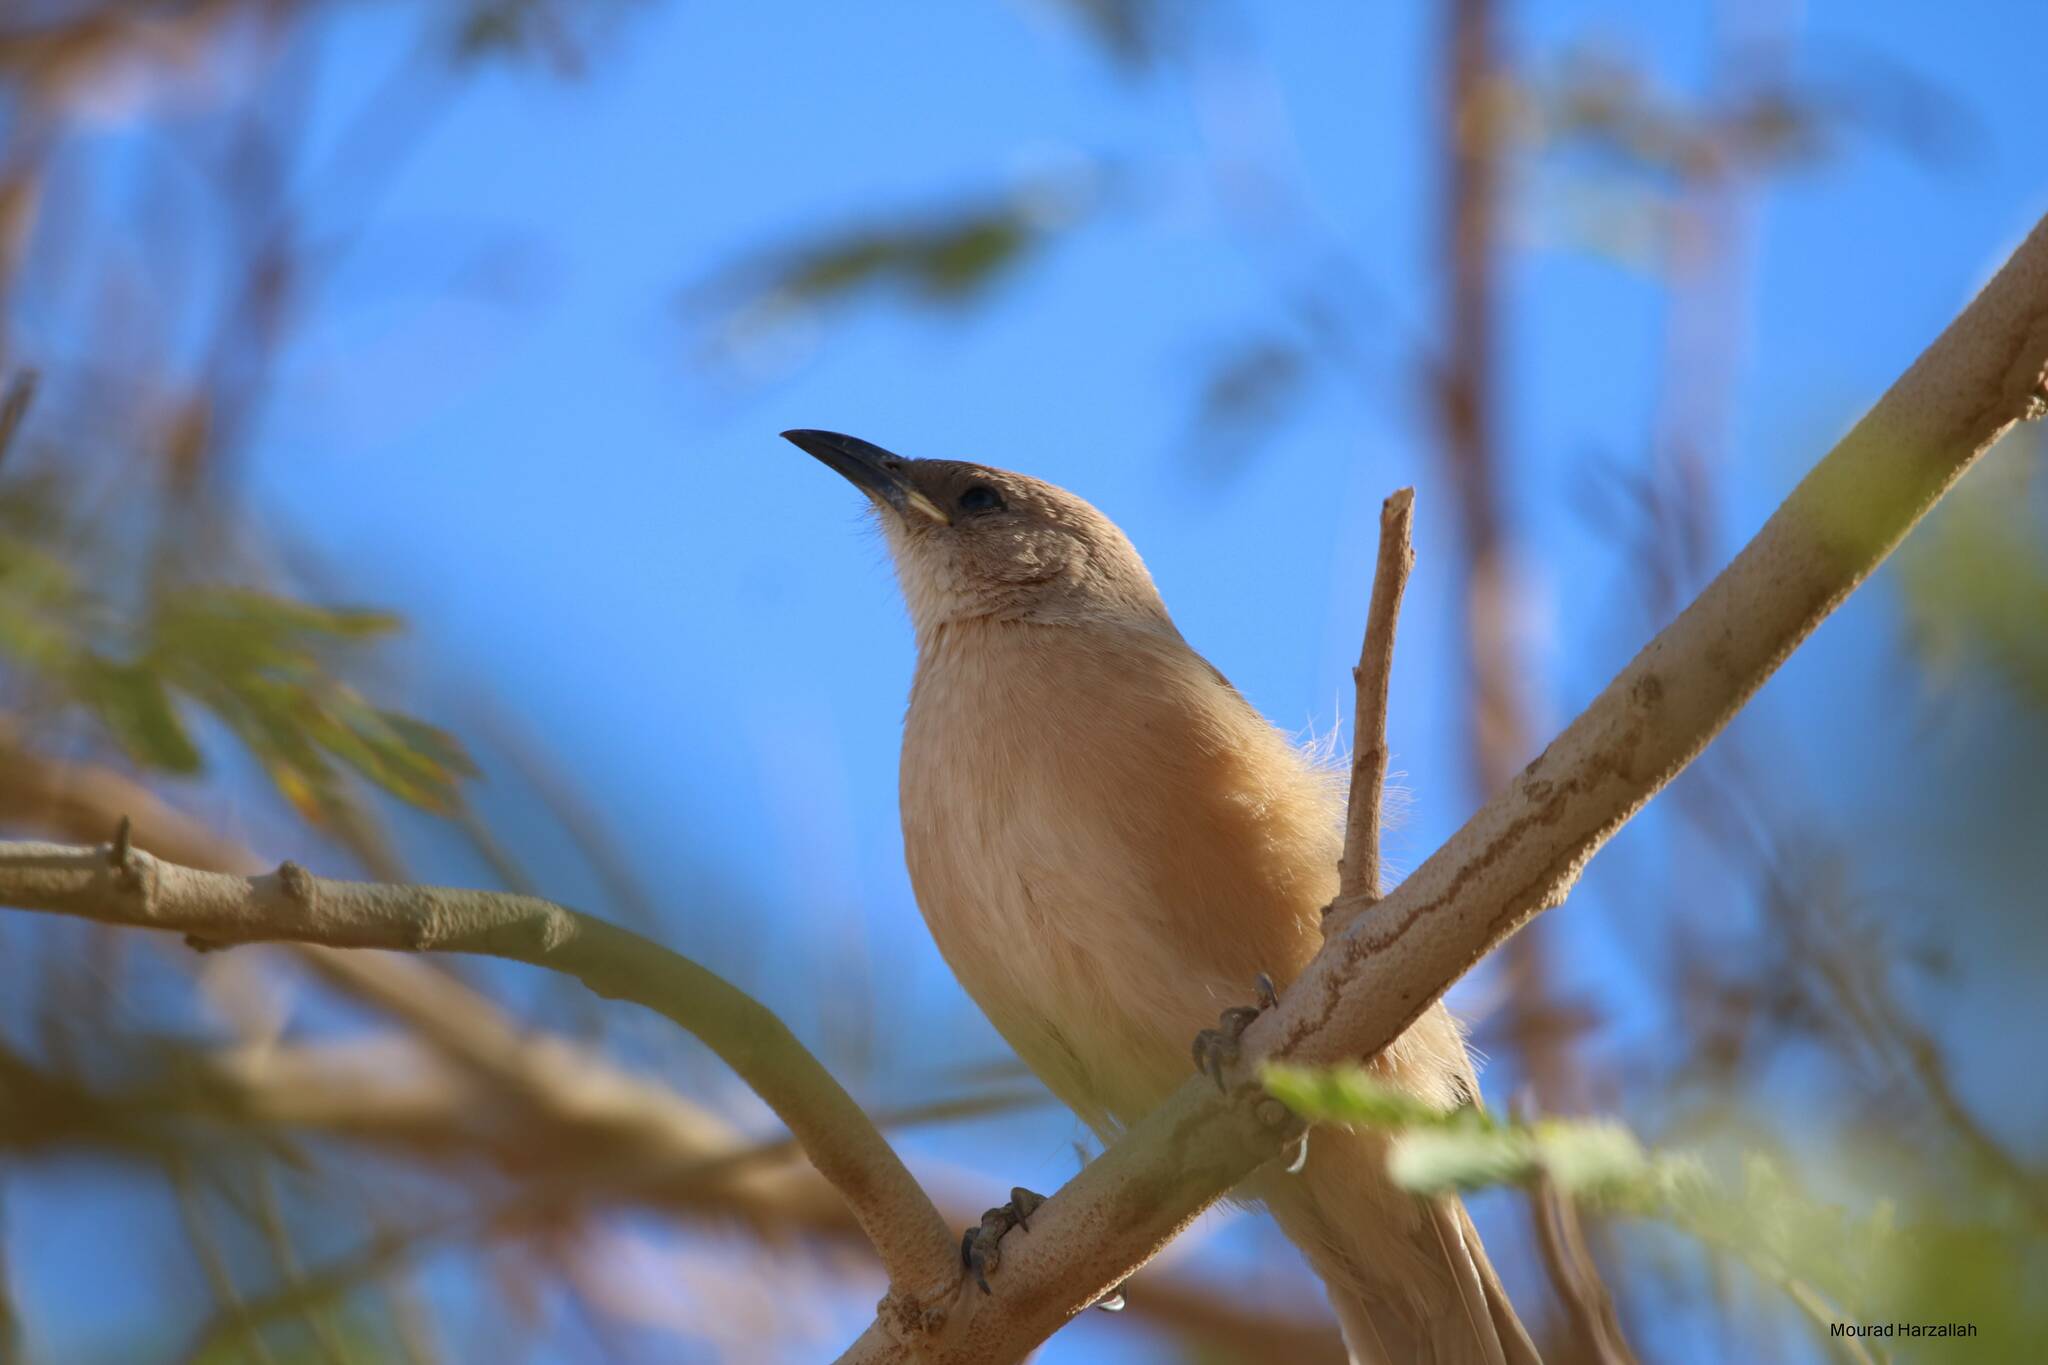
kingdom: Animalia
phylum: Chordata
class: Aves
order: Passeriformes
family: Leiothrichidae
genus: Turdoides
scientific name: Turdoides fulva
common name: Fulvous babbler
